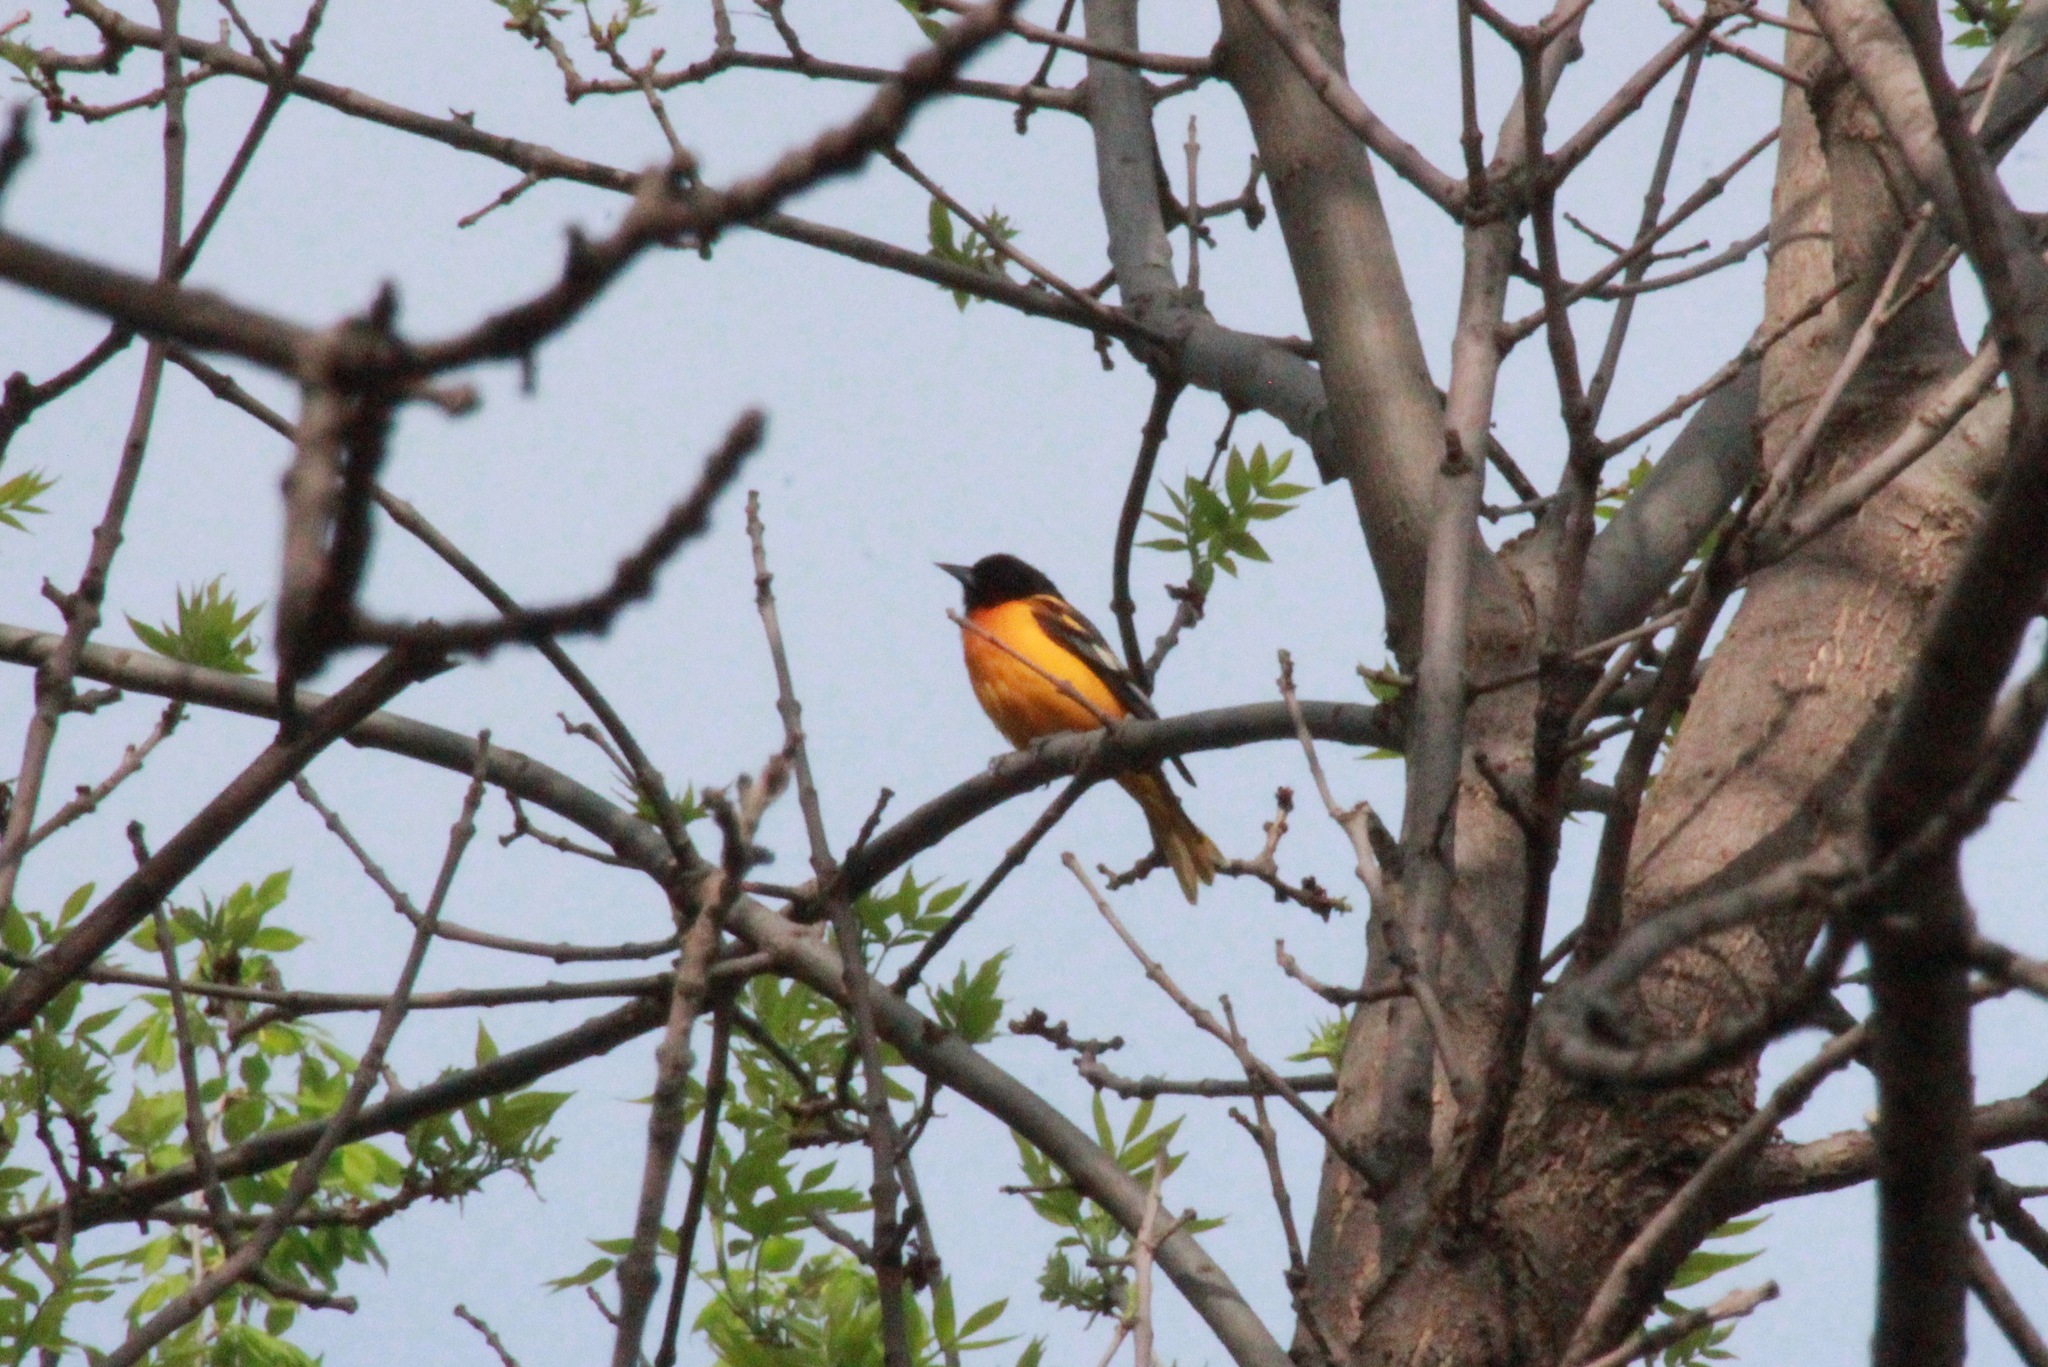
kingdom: Animalia
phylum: Chordata
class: Aves
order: Passeriformes
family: Icteridae
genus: Icterus
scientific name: Icterus galbula
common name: Baltimore oriole
